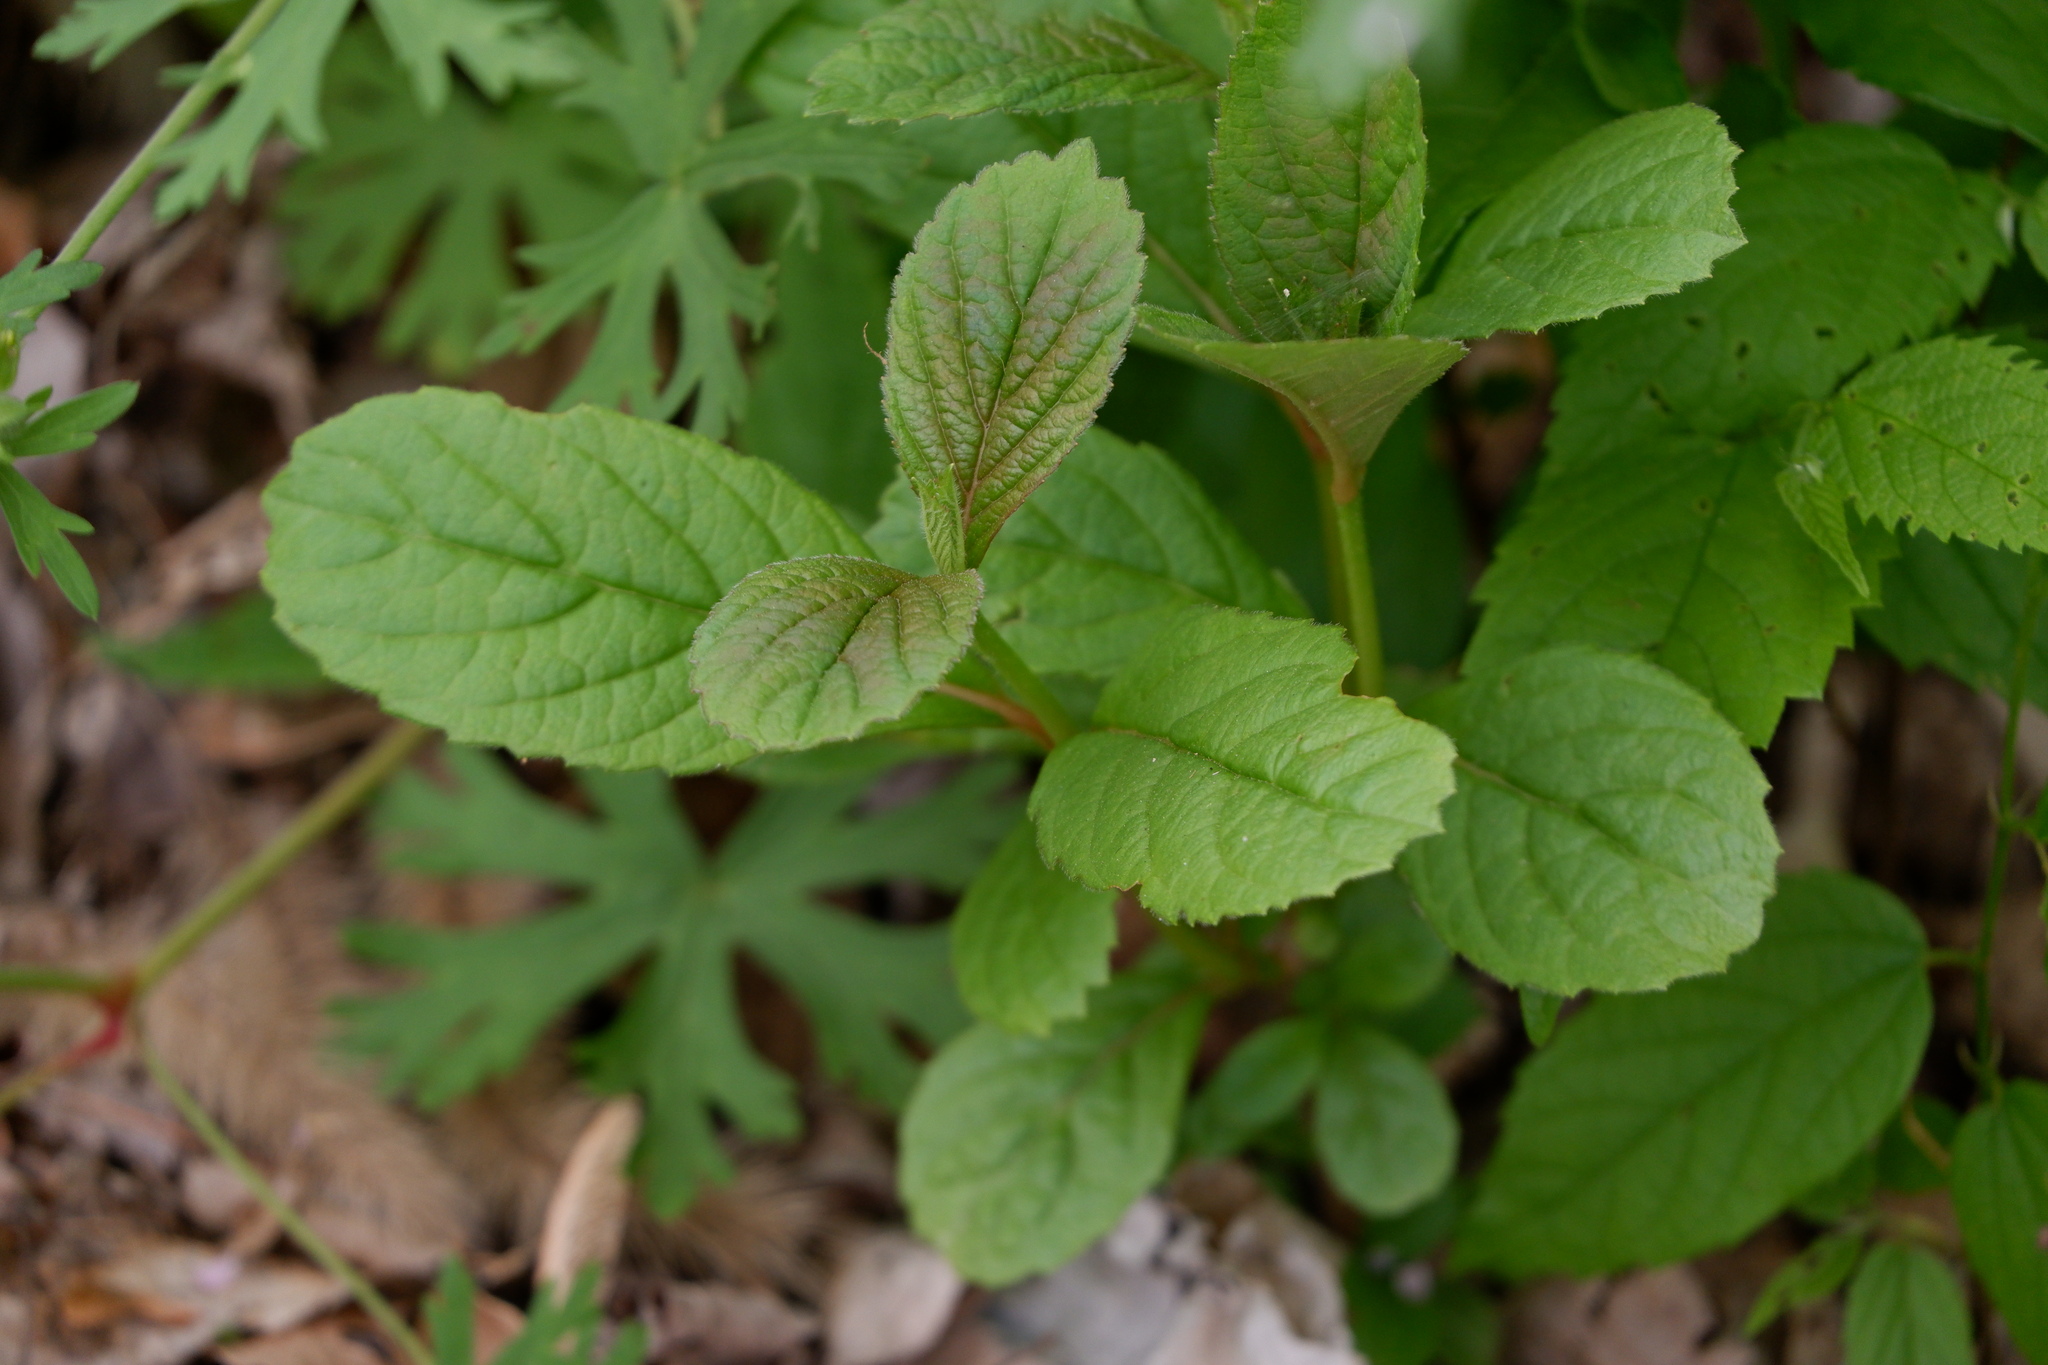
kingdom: Plantae
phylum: Tracheophyta
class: Magnoliopsida
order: Dipsacales
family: Viburnaceae
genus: Viburnum
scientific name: Viburnum sieboldii
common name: Siebold's arrowwood
